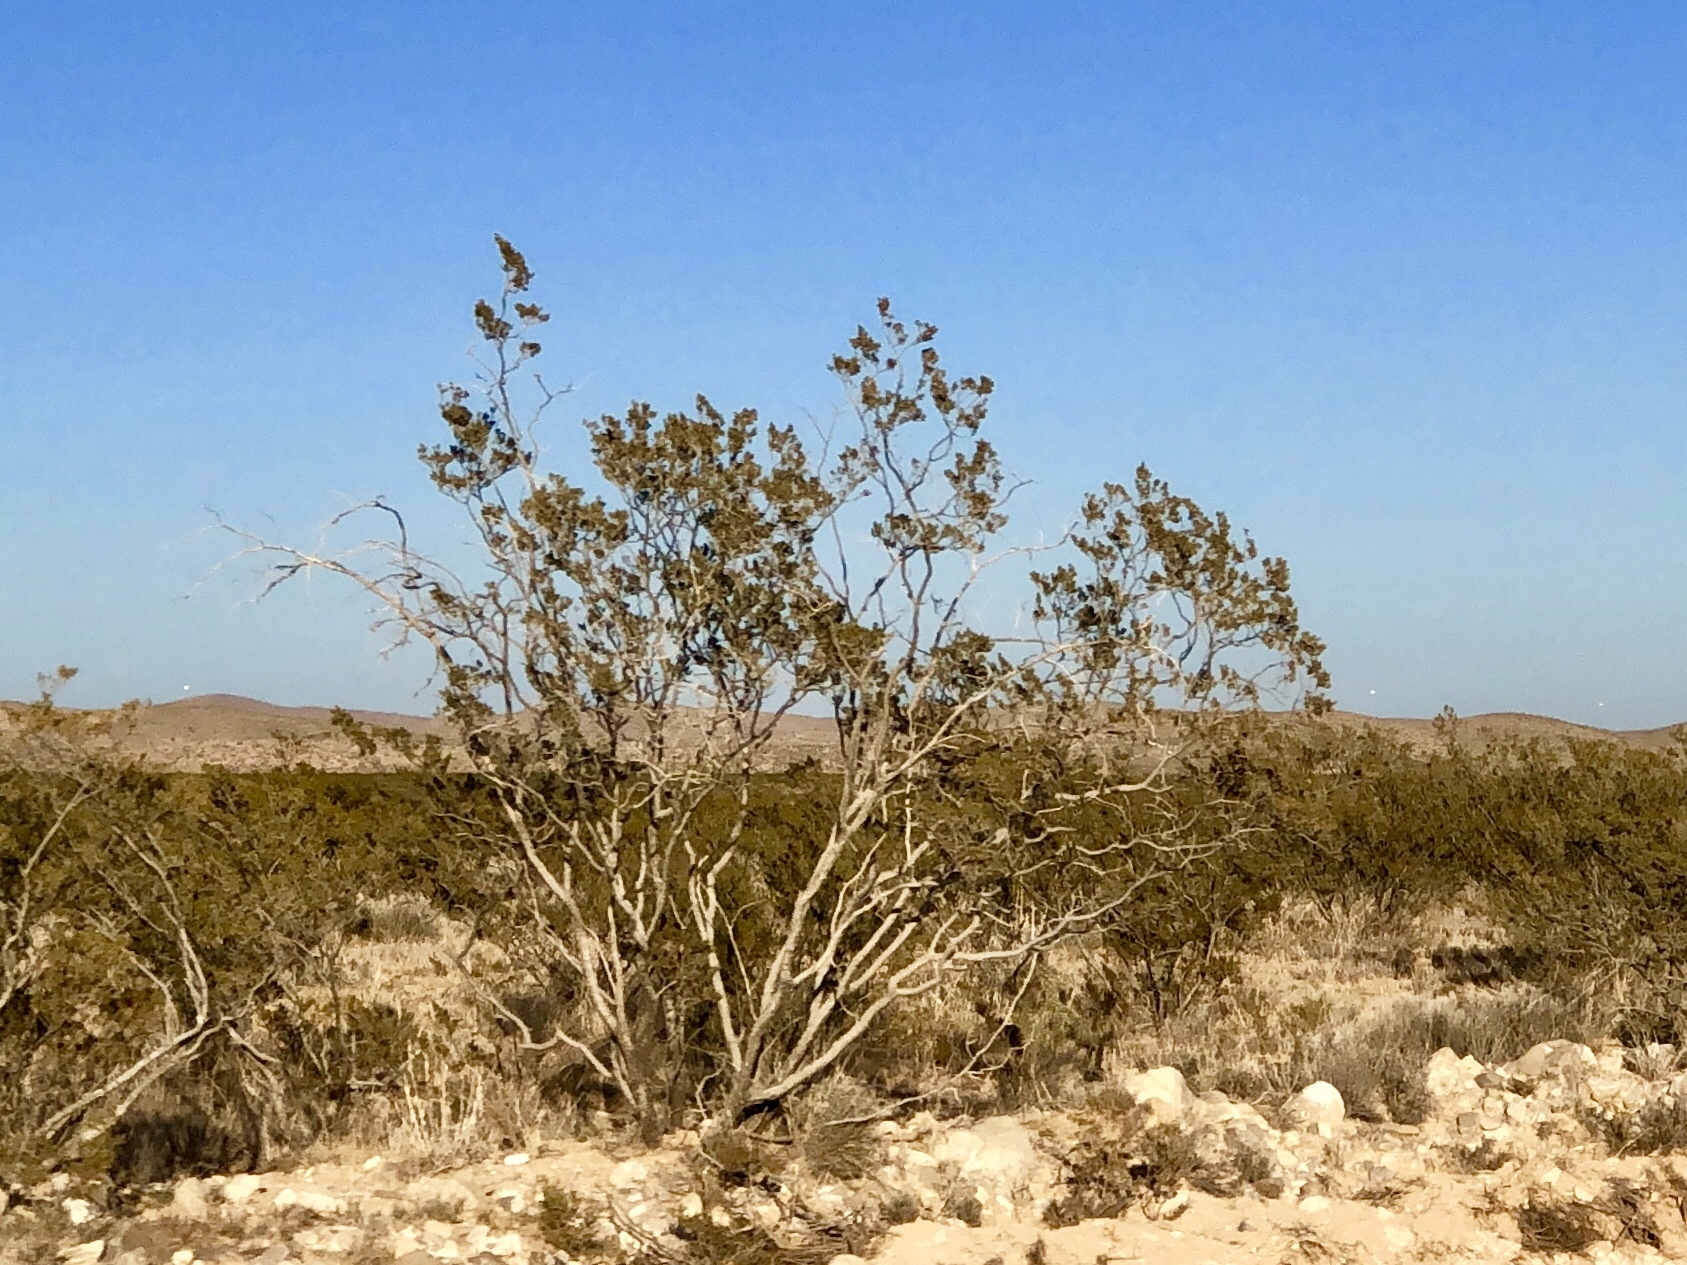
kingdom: Plantae
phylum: Tracheophyta
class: Magnoliopsida
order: Zygophyllales
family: Zygophyllaceae
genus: Larrea
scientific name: Larrea tridentata
